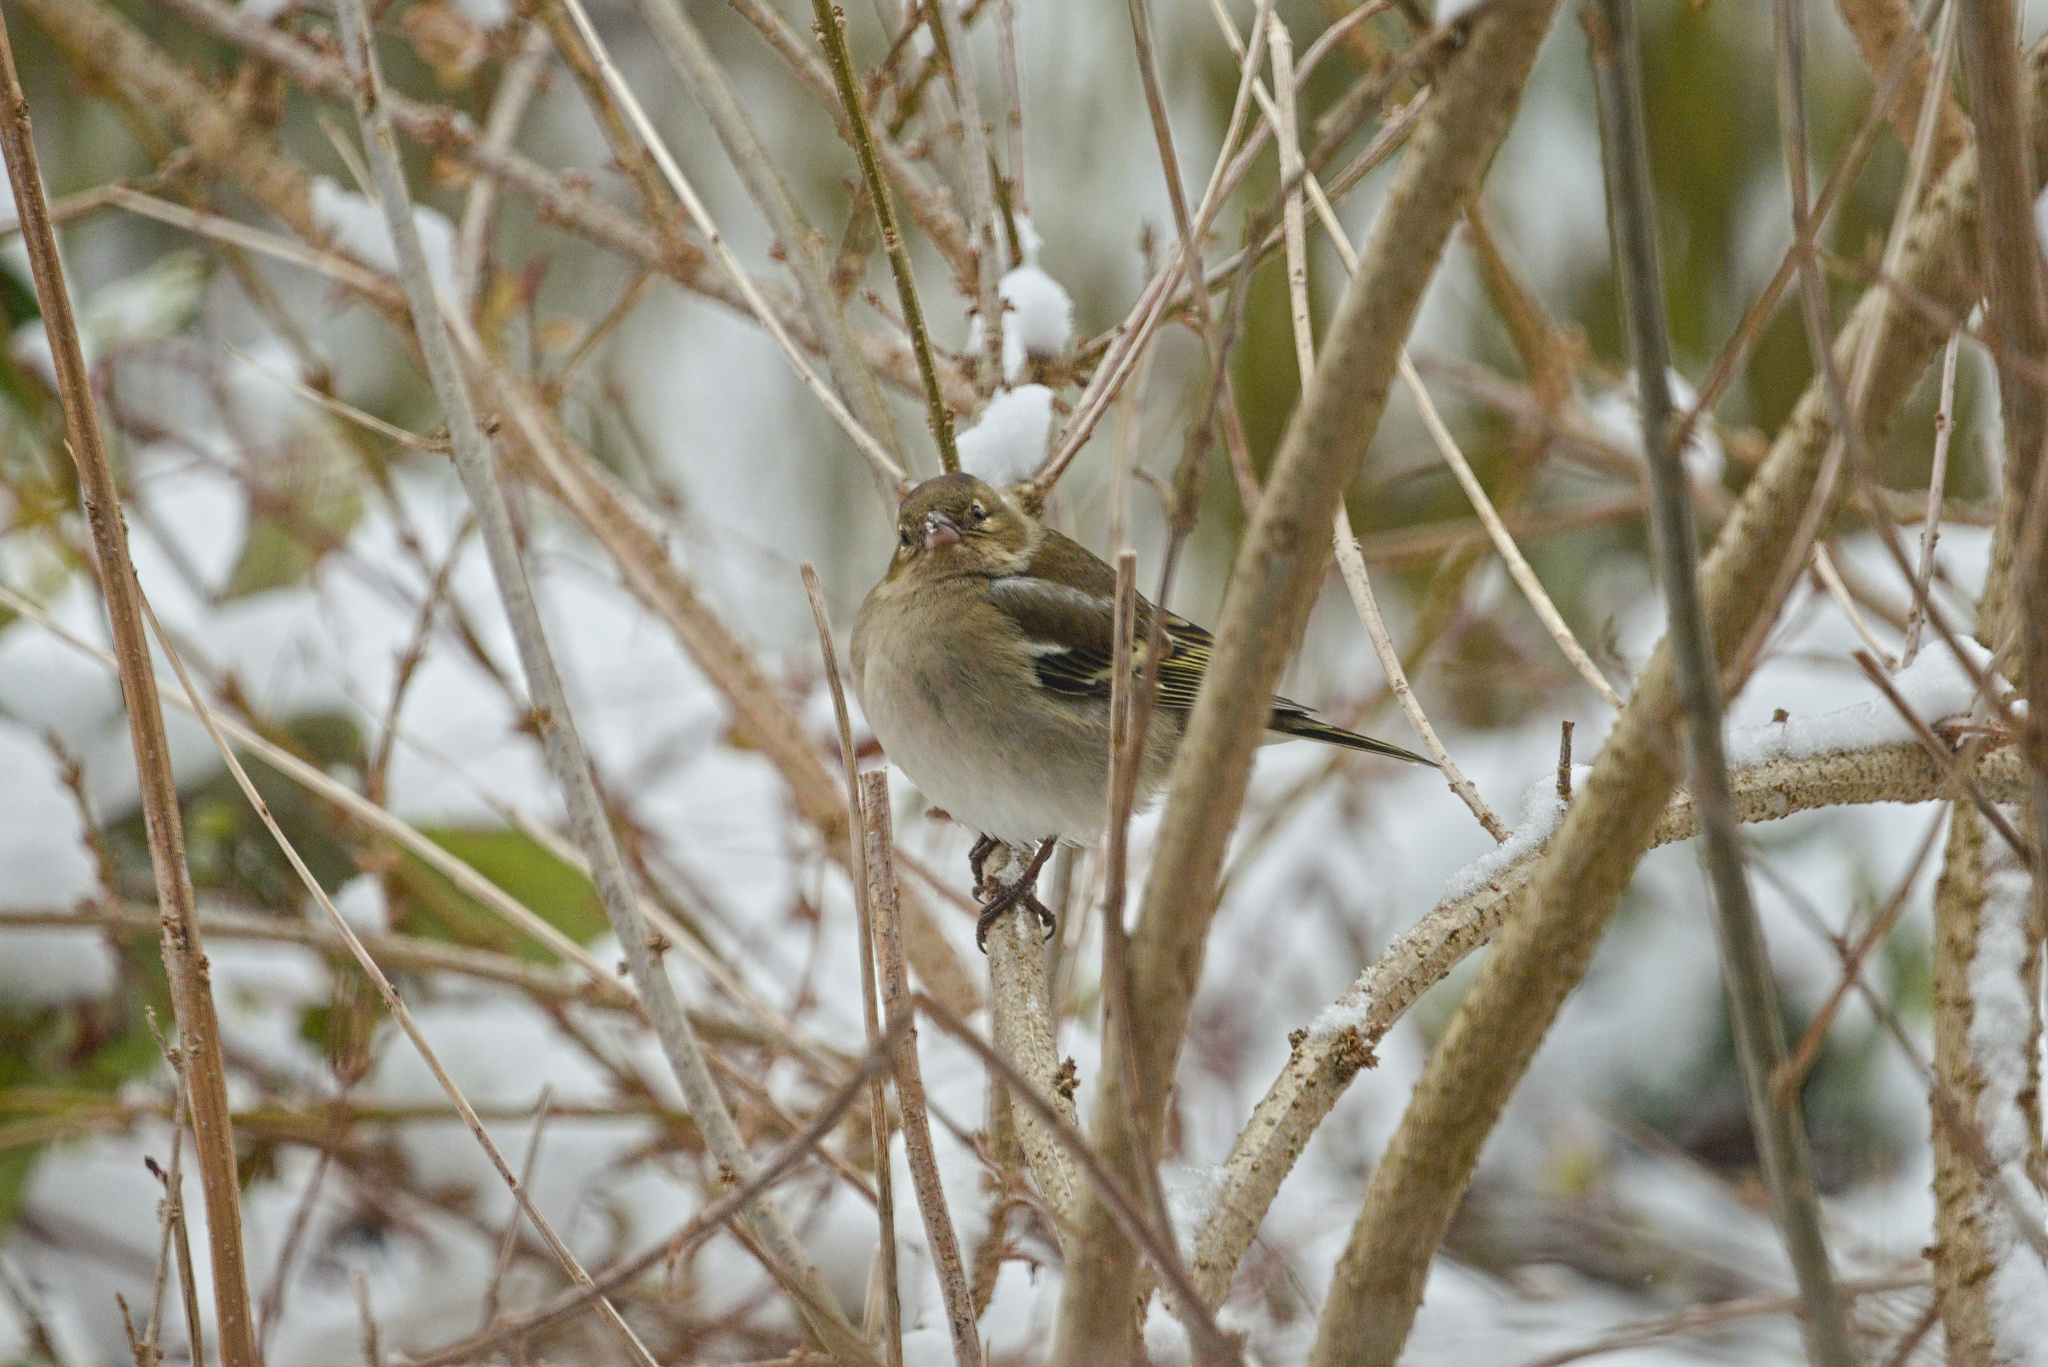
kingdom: Animalia
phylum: Chordata
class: Aves
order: Passeriformes
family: Fringillidae
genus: Fringilla
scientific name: Fringilla coelebs
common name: Common chaffinch
